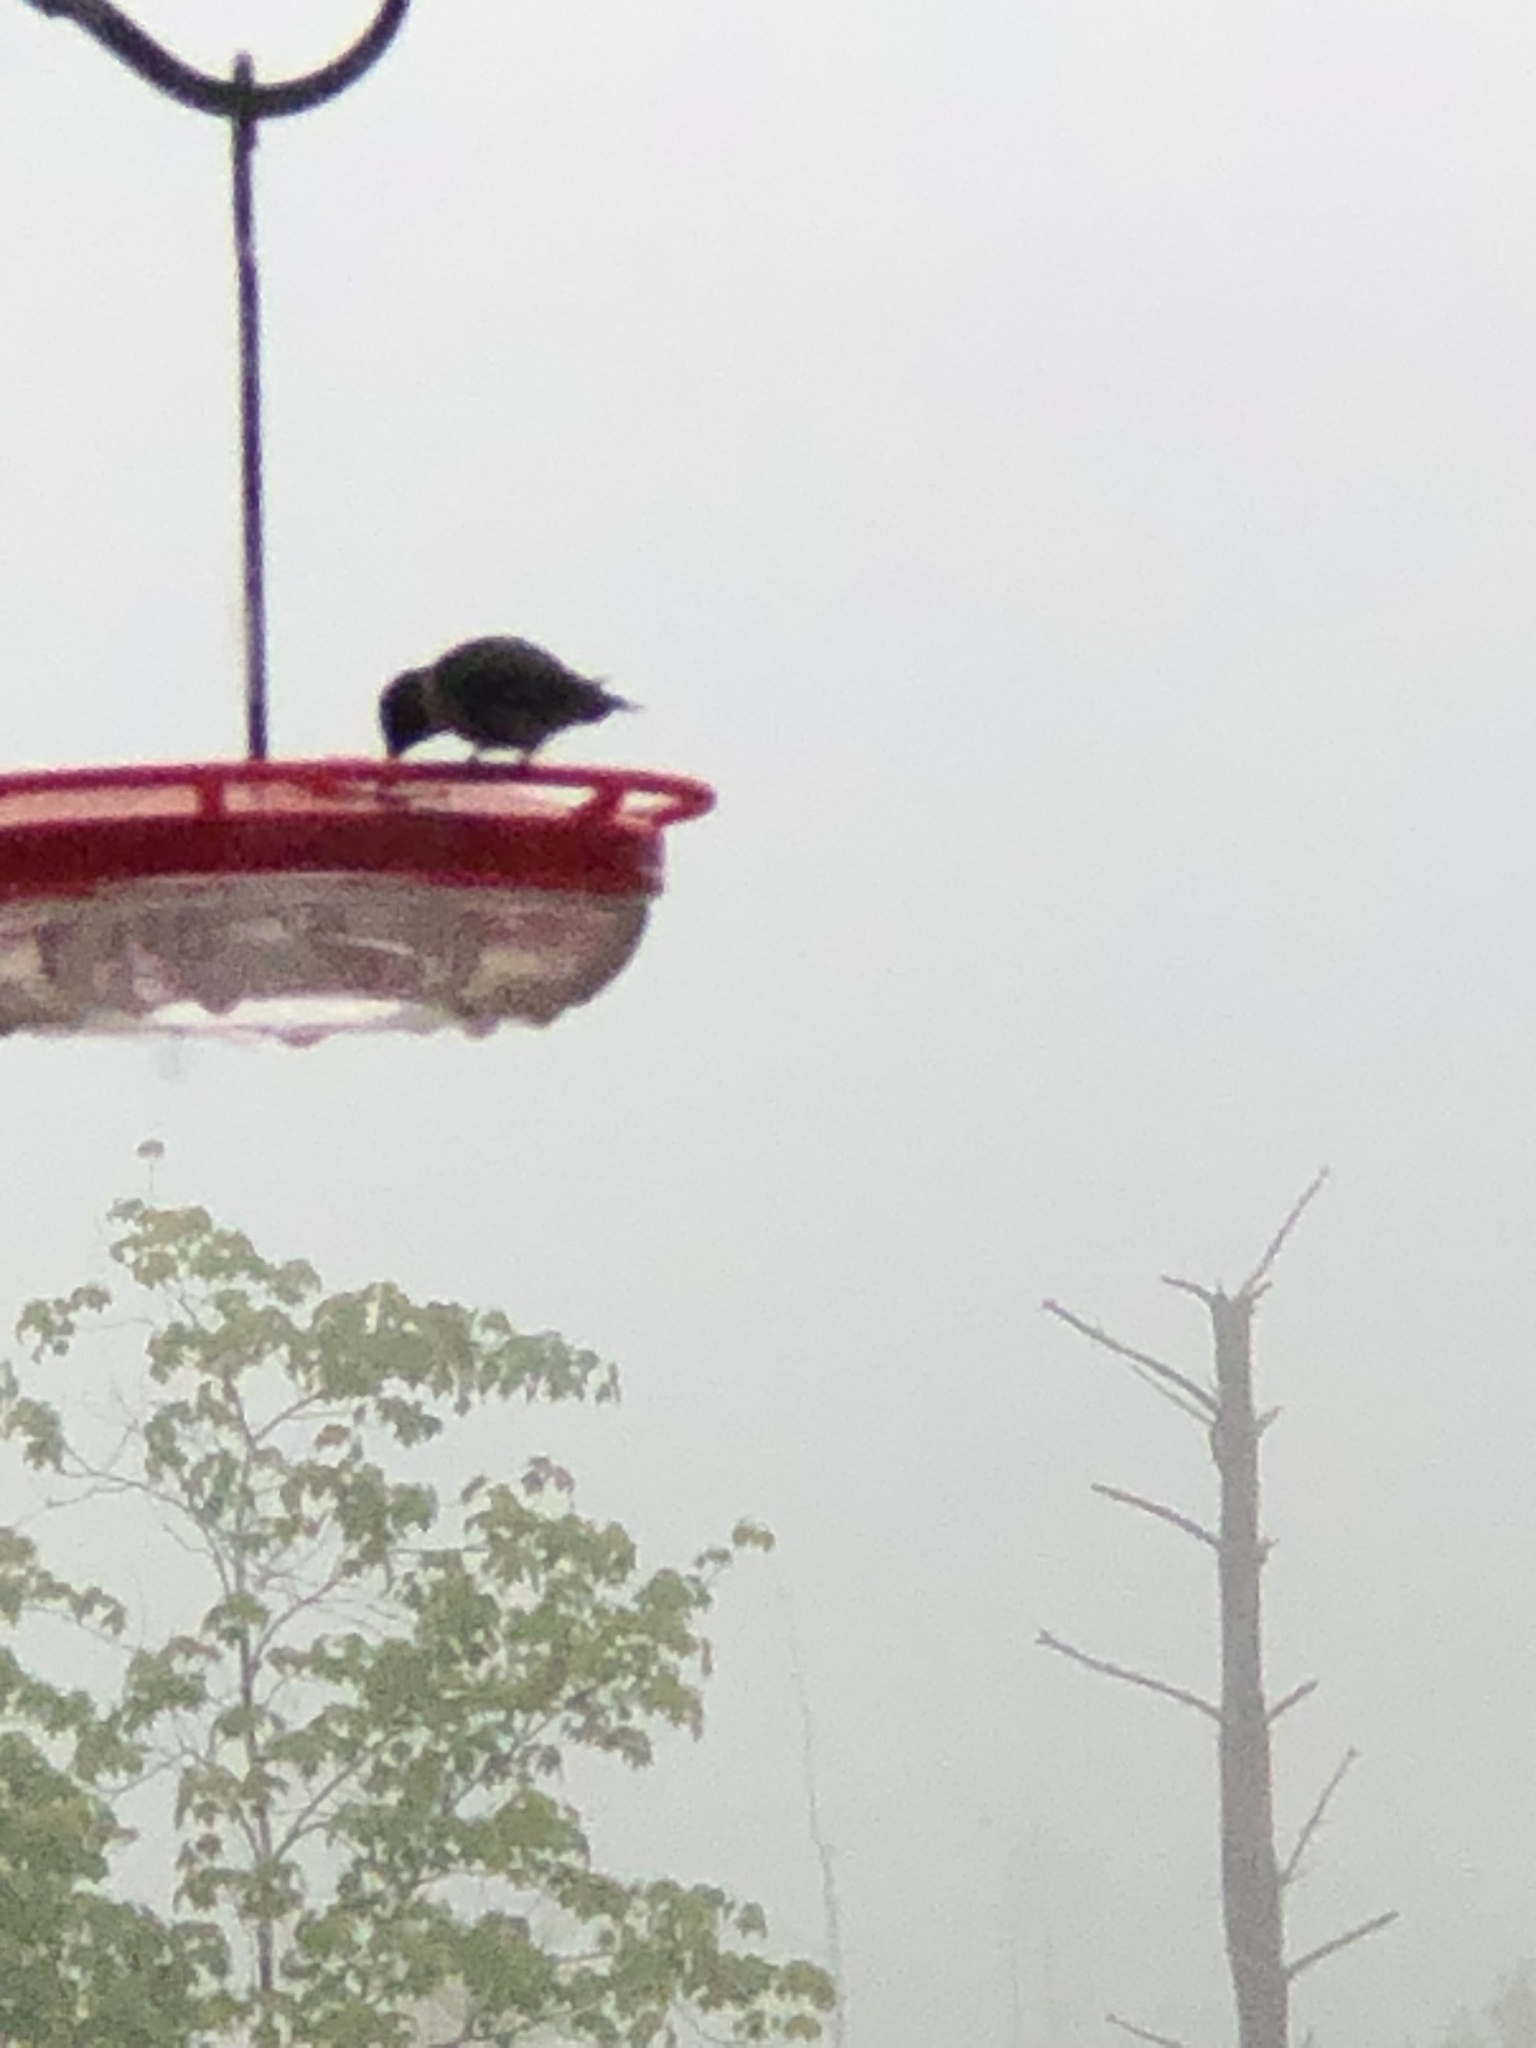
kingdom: Animalia
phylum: Chordata
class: Aves
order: Apodiformes
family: Trochilidae
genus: Archilochus
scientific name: Archilochus colubris
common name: Ruby-throated hummingbird
